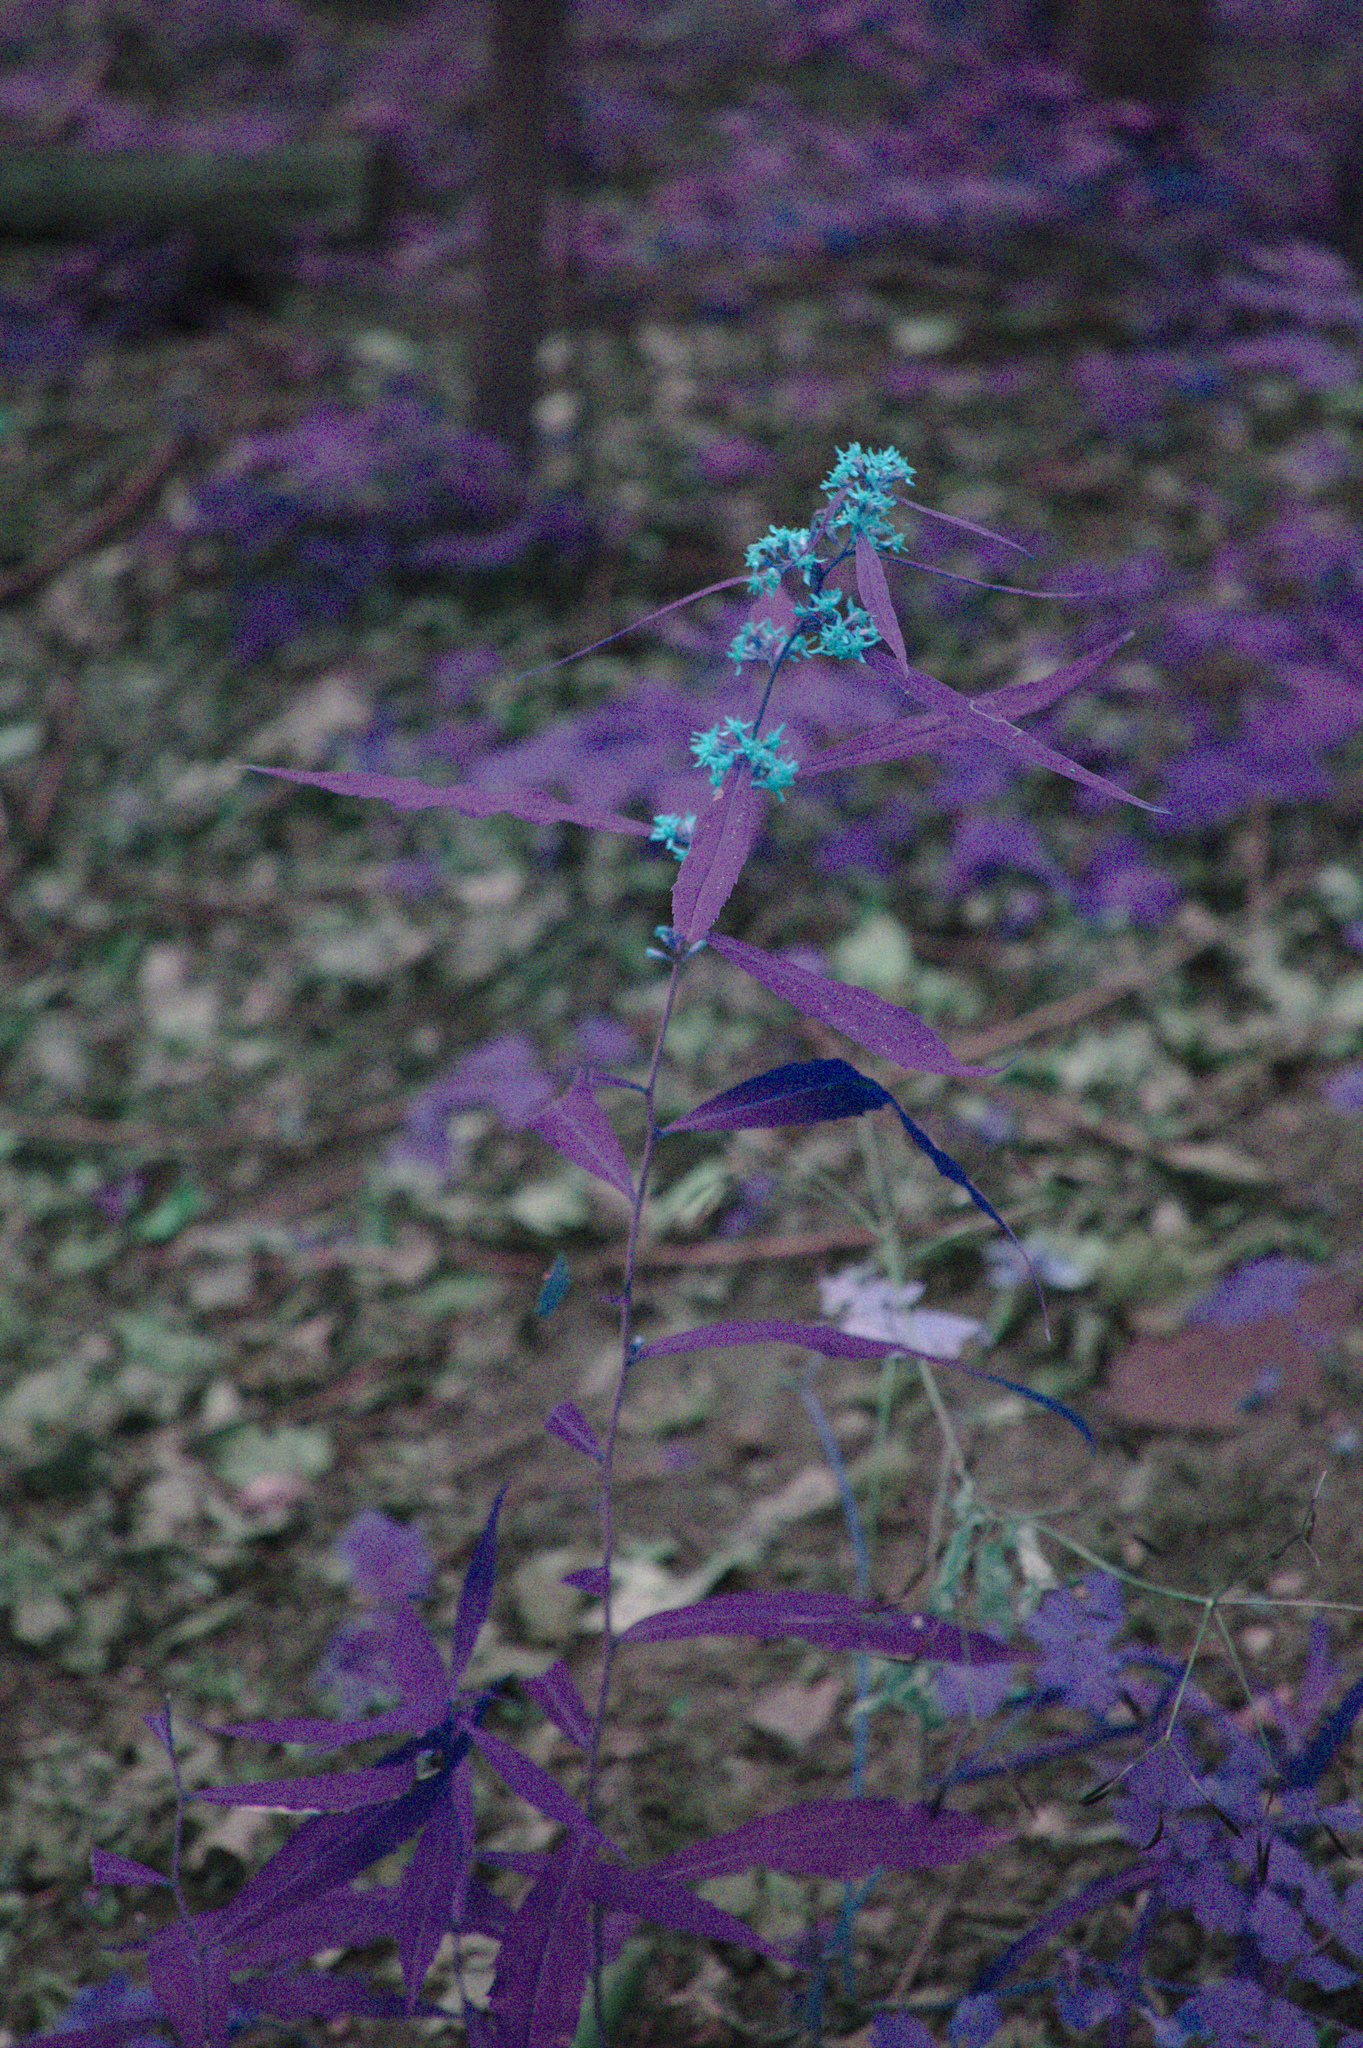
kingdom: Plantae
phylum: Tracheophyta
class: Magnoliopsida
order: Asterales
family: Asteraceae
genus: Solidago
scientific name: Solidago caesia
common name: Woodland goldenrod
